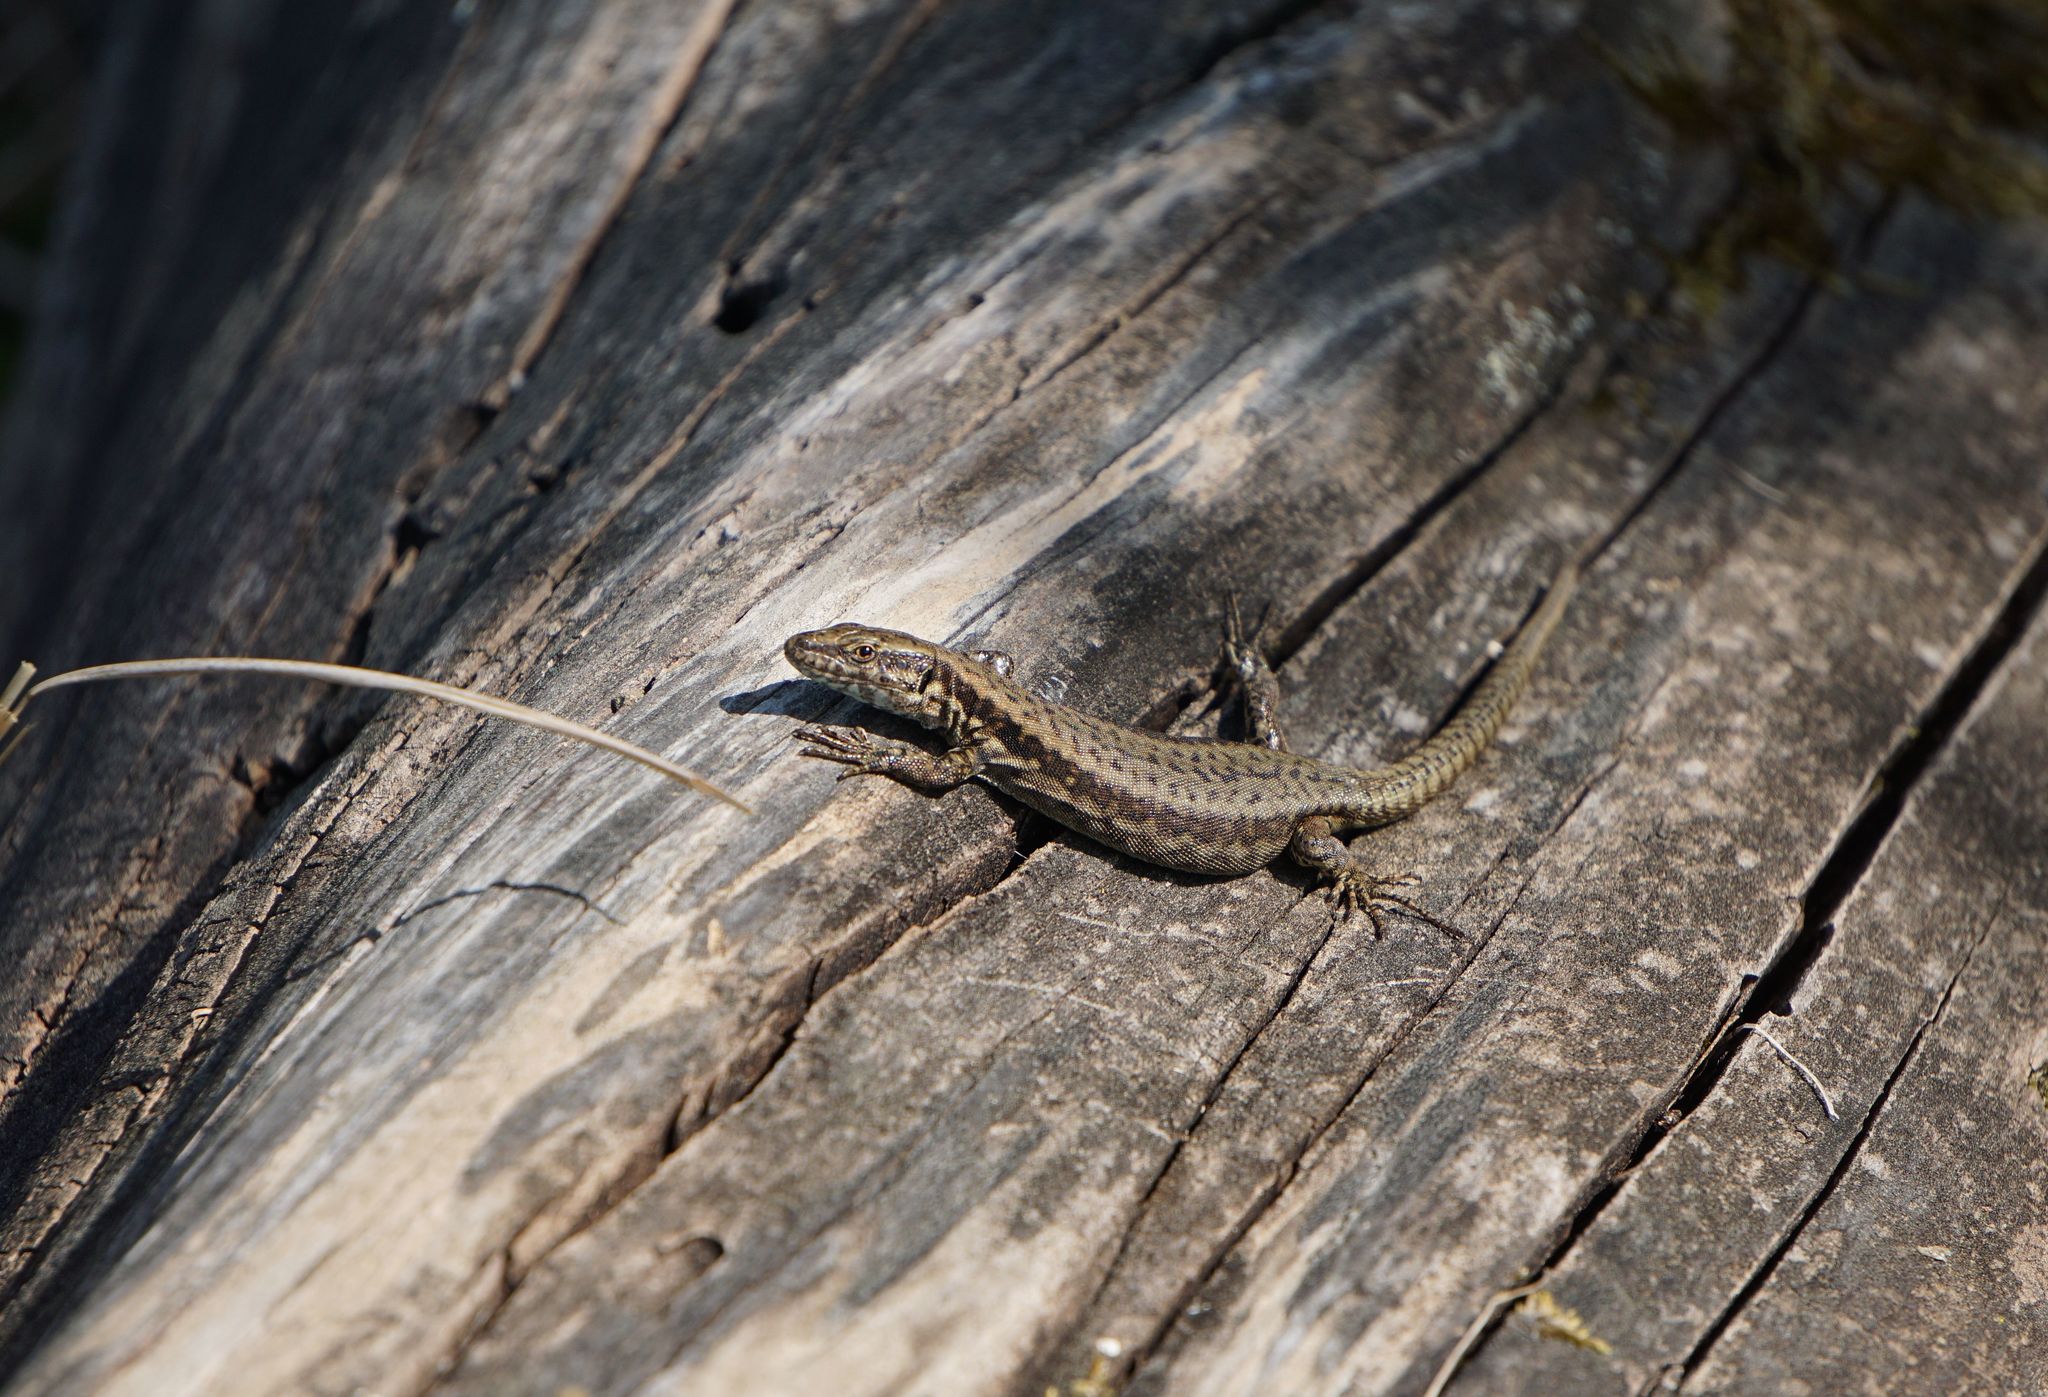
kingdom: Animalia
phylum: Chordata
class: Squamata
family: Lacertidae
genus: Podarcis
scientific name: Podarcis muralis
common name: Common wall lizard
